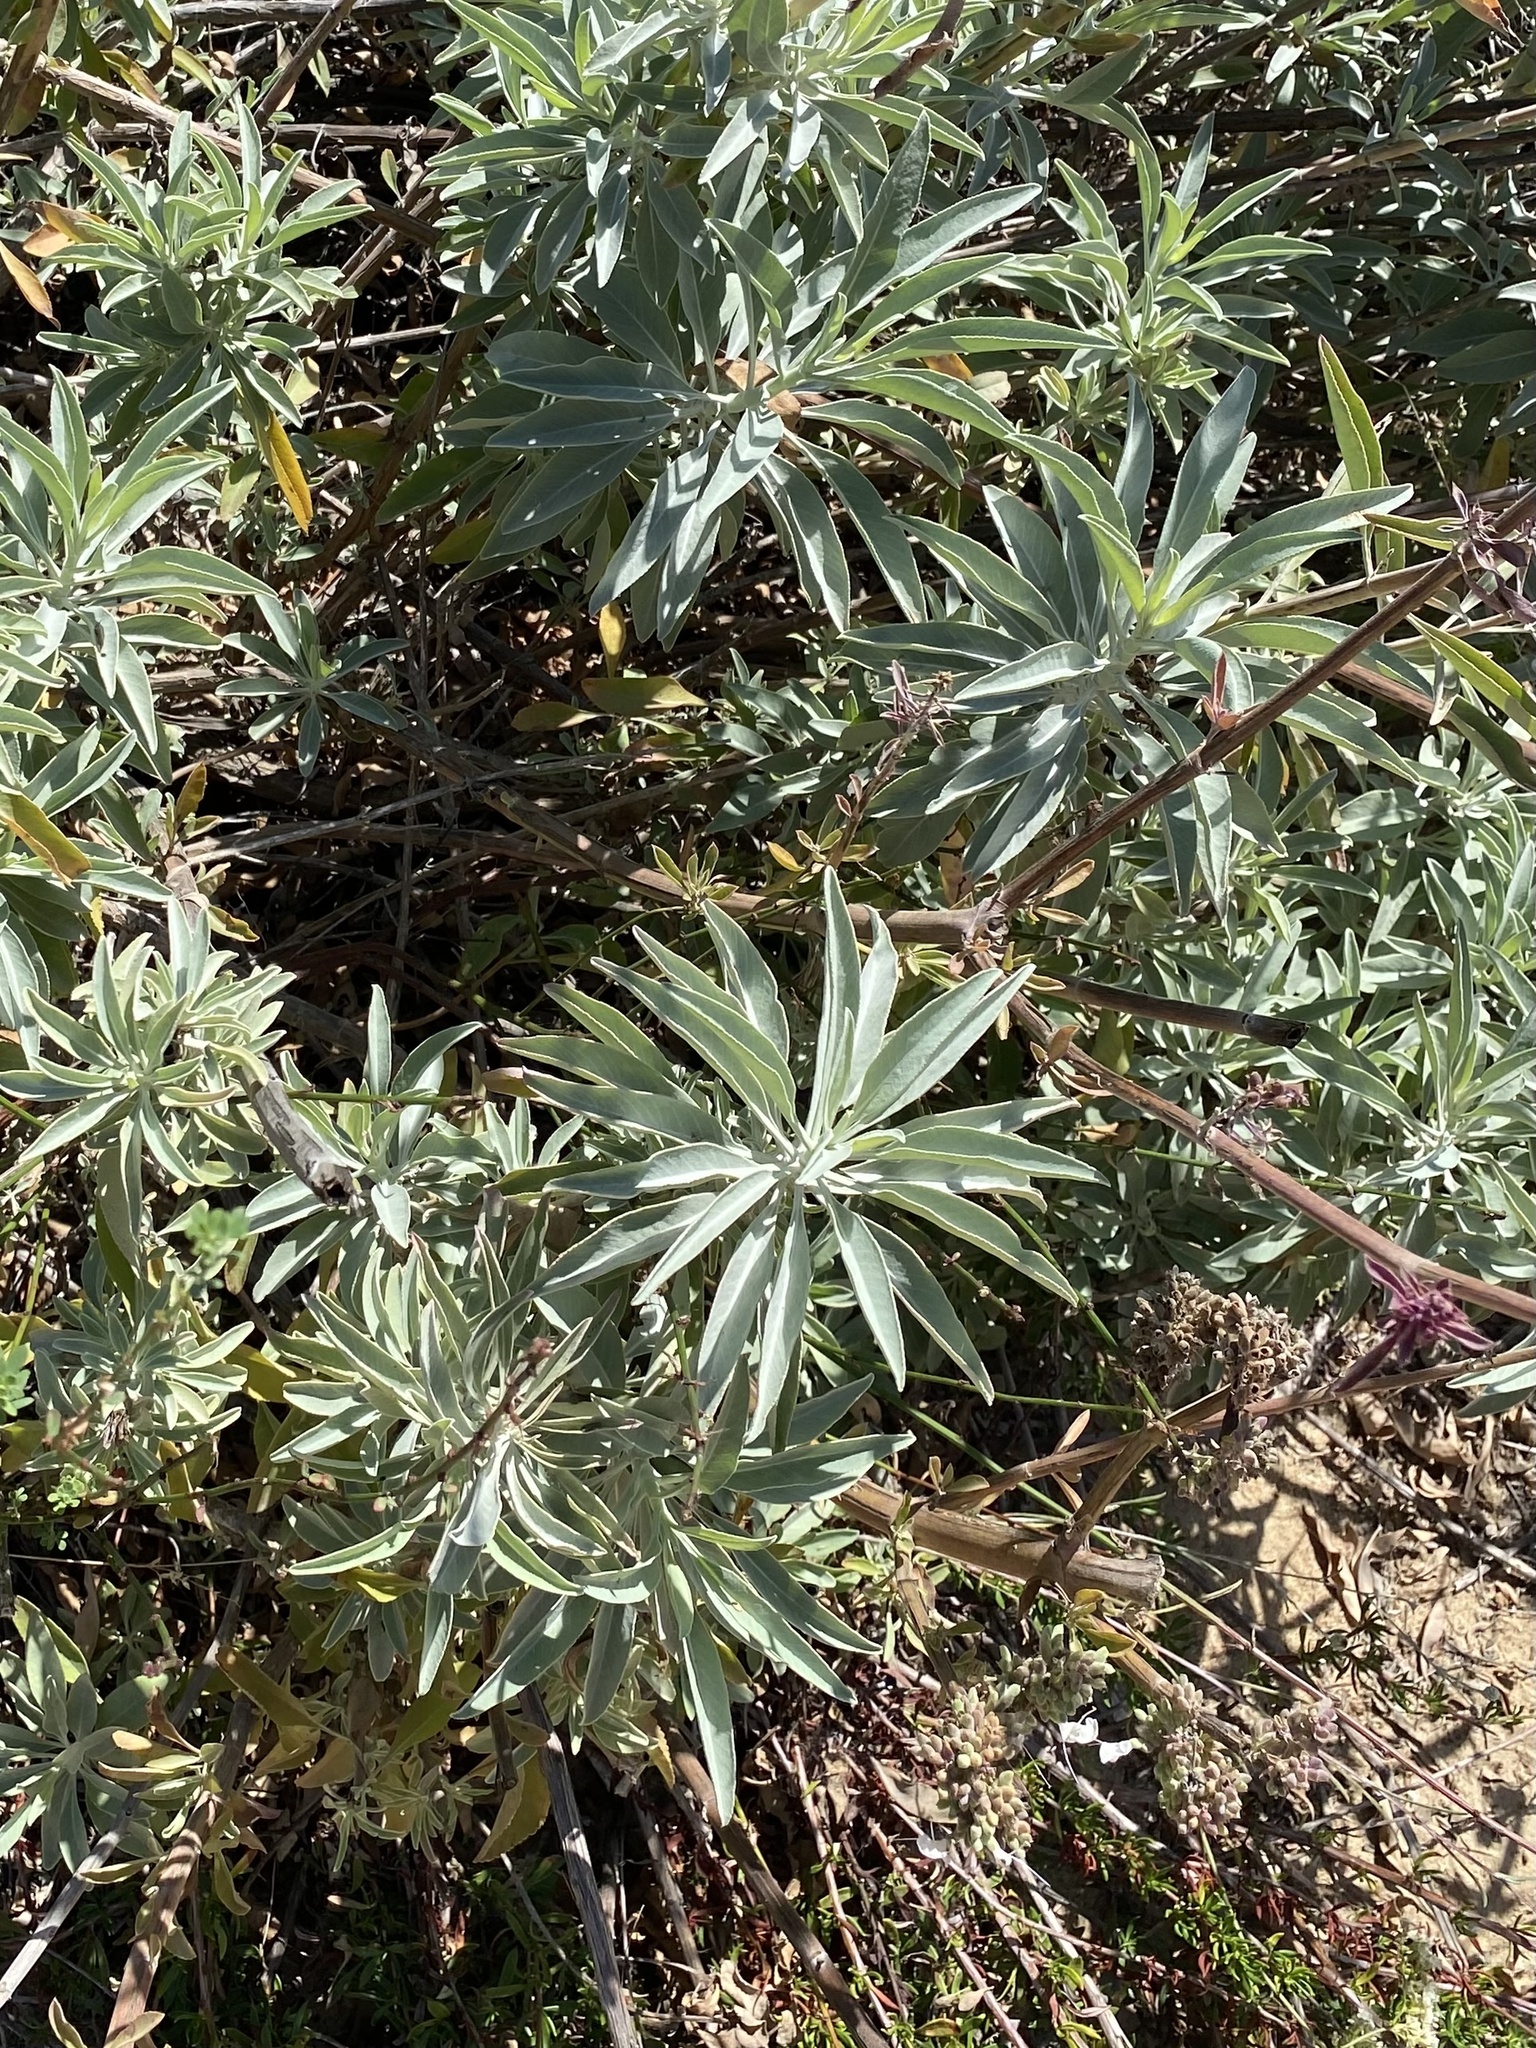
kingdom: Plantae
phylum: Tracheophyta
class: Magnoliopsida
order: Lamiales
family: Lamiaceae
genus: Salvia
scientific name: Salvia apiana
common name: White sage
